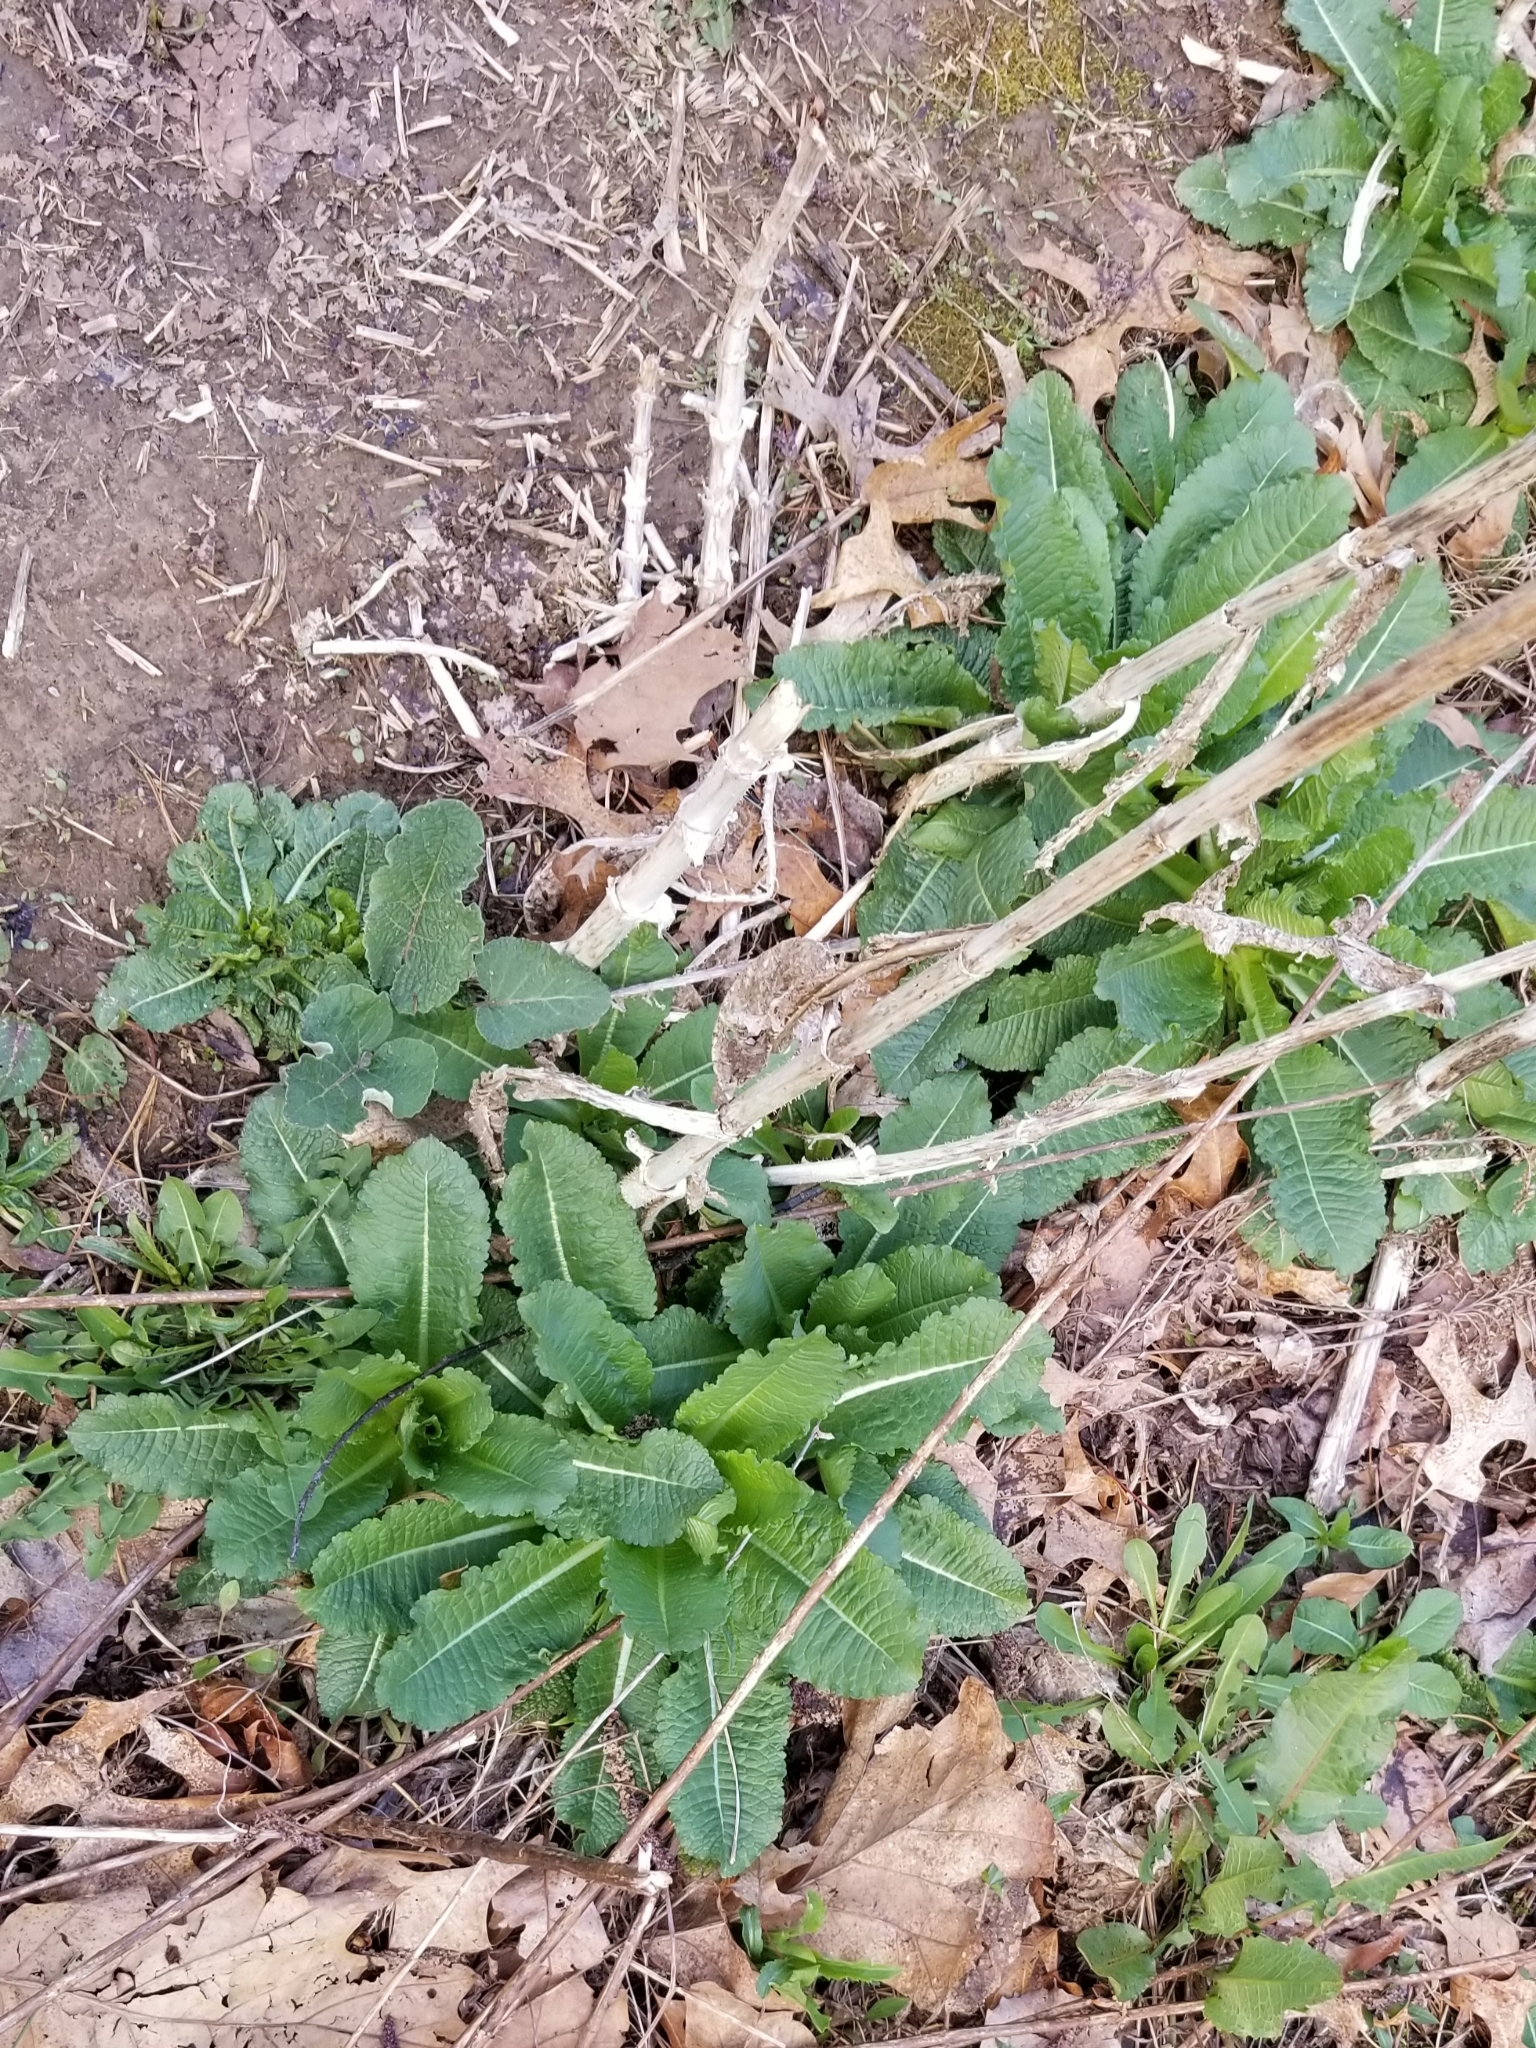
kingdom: Plantae
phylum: Tracheophyta
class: Magnoliopsida
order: Dipsacales
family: Caprifoliaceae
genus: Dipsacus
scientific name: Dipsacus laciniatus
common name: Cut-leaved teasel
